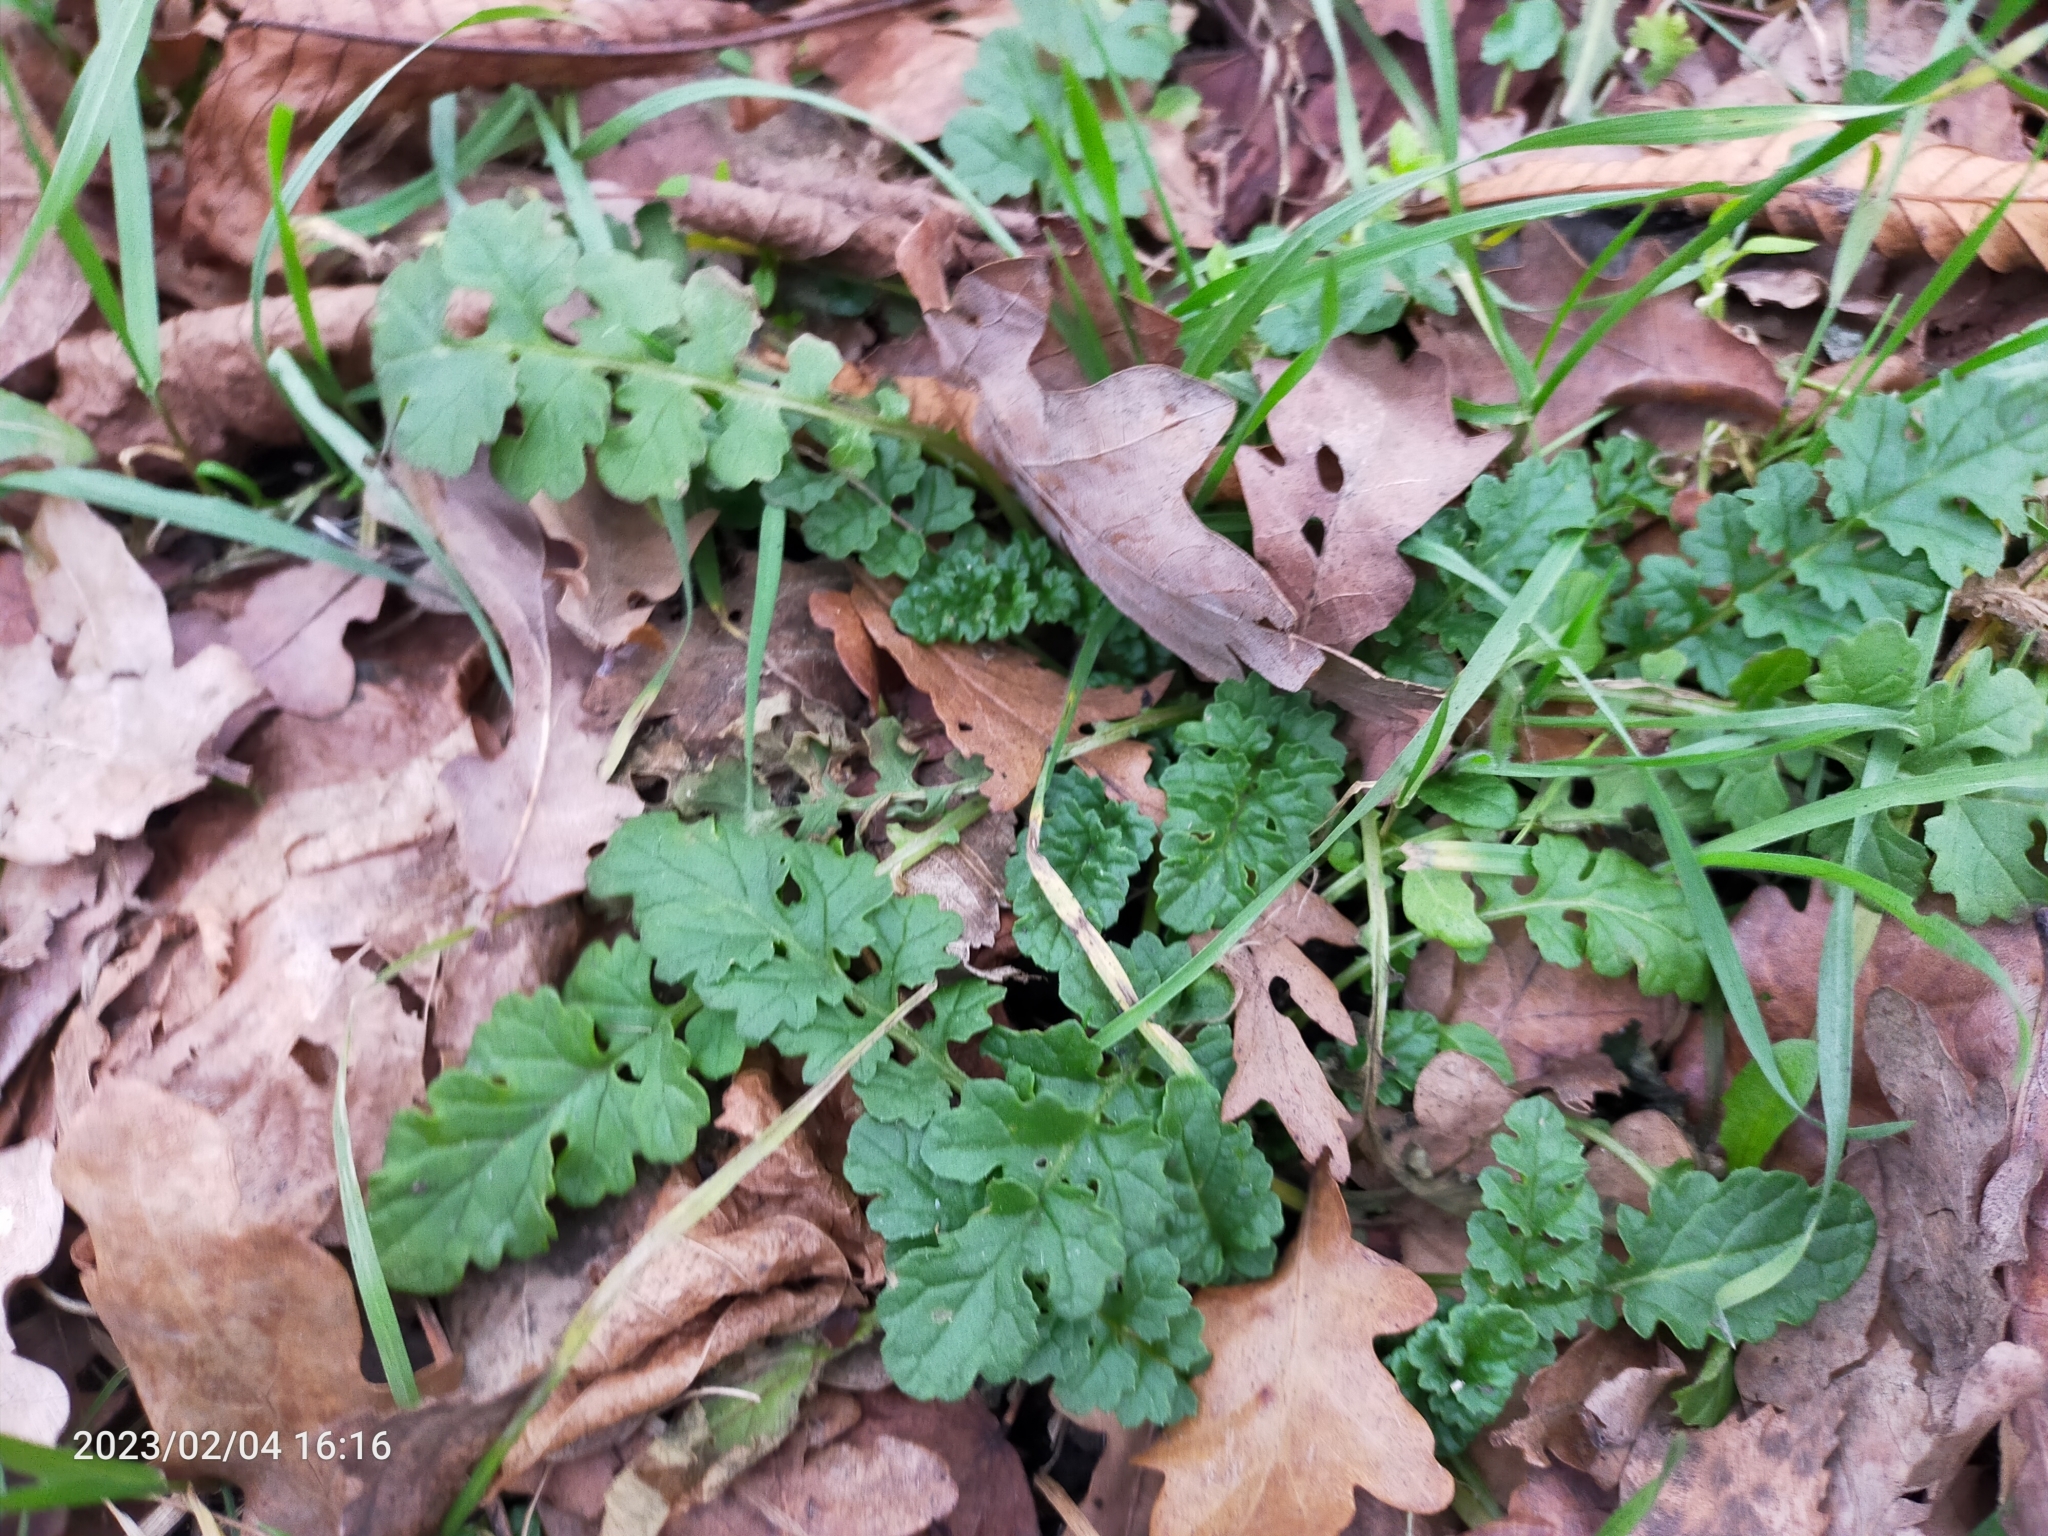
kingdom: Plantae
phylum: Tracheophyta
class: Magnoliopsida
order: Asterales
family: Asteraceae
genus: Jacobaea
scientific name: Jacobaea vulgaris
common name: Stinking willie
